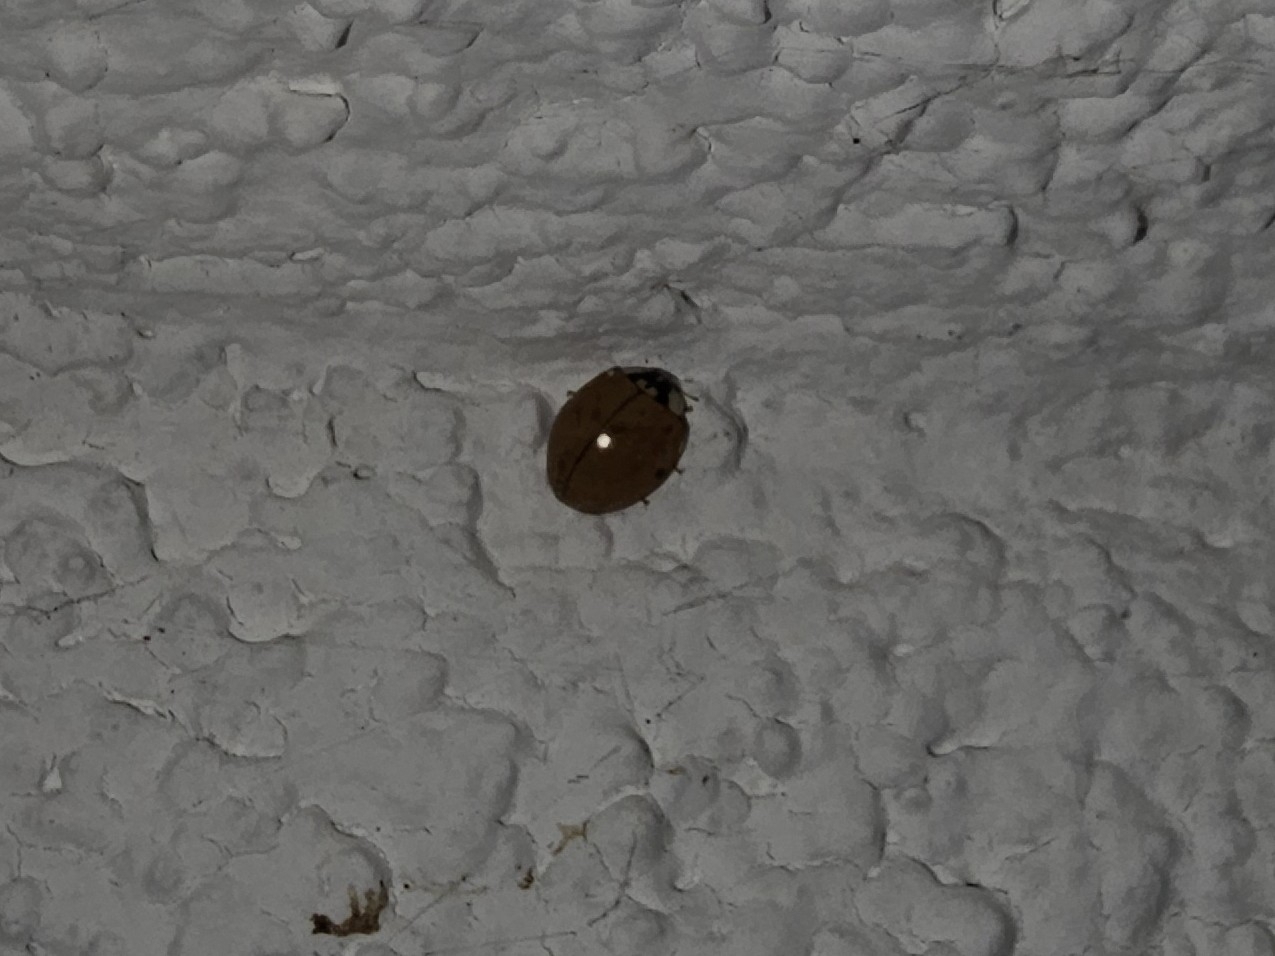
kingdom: Animalia
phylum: Arthropoda
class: Insecta
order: Coleoptera
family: Coccinellidae
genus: Harmonia
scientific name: Harmonia axyridis
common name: Harlequin ladybird
